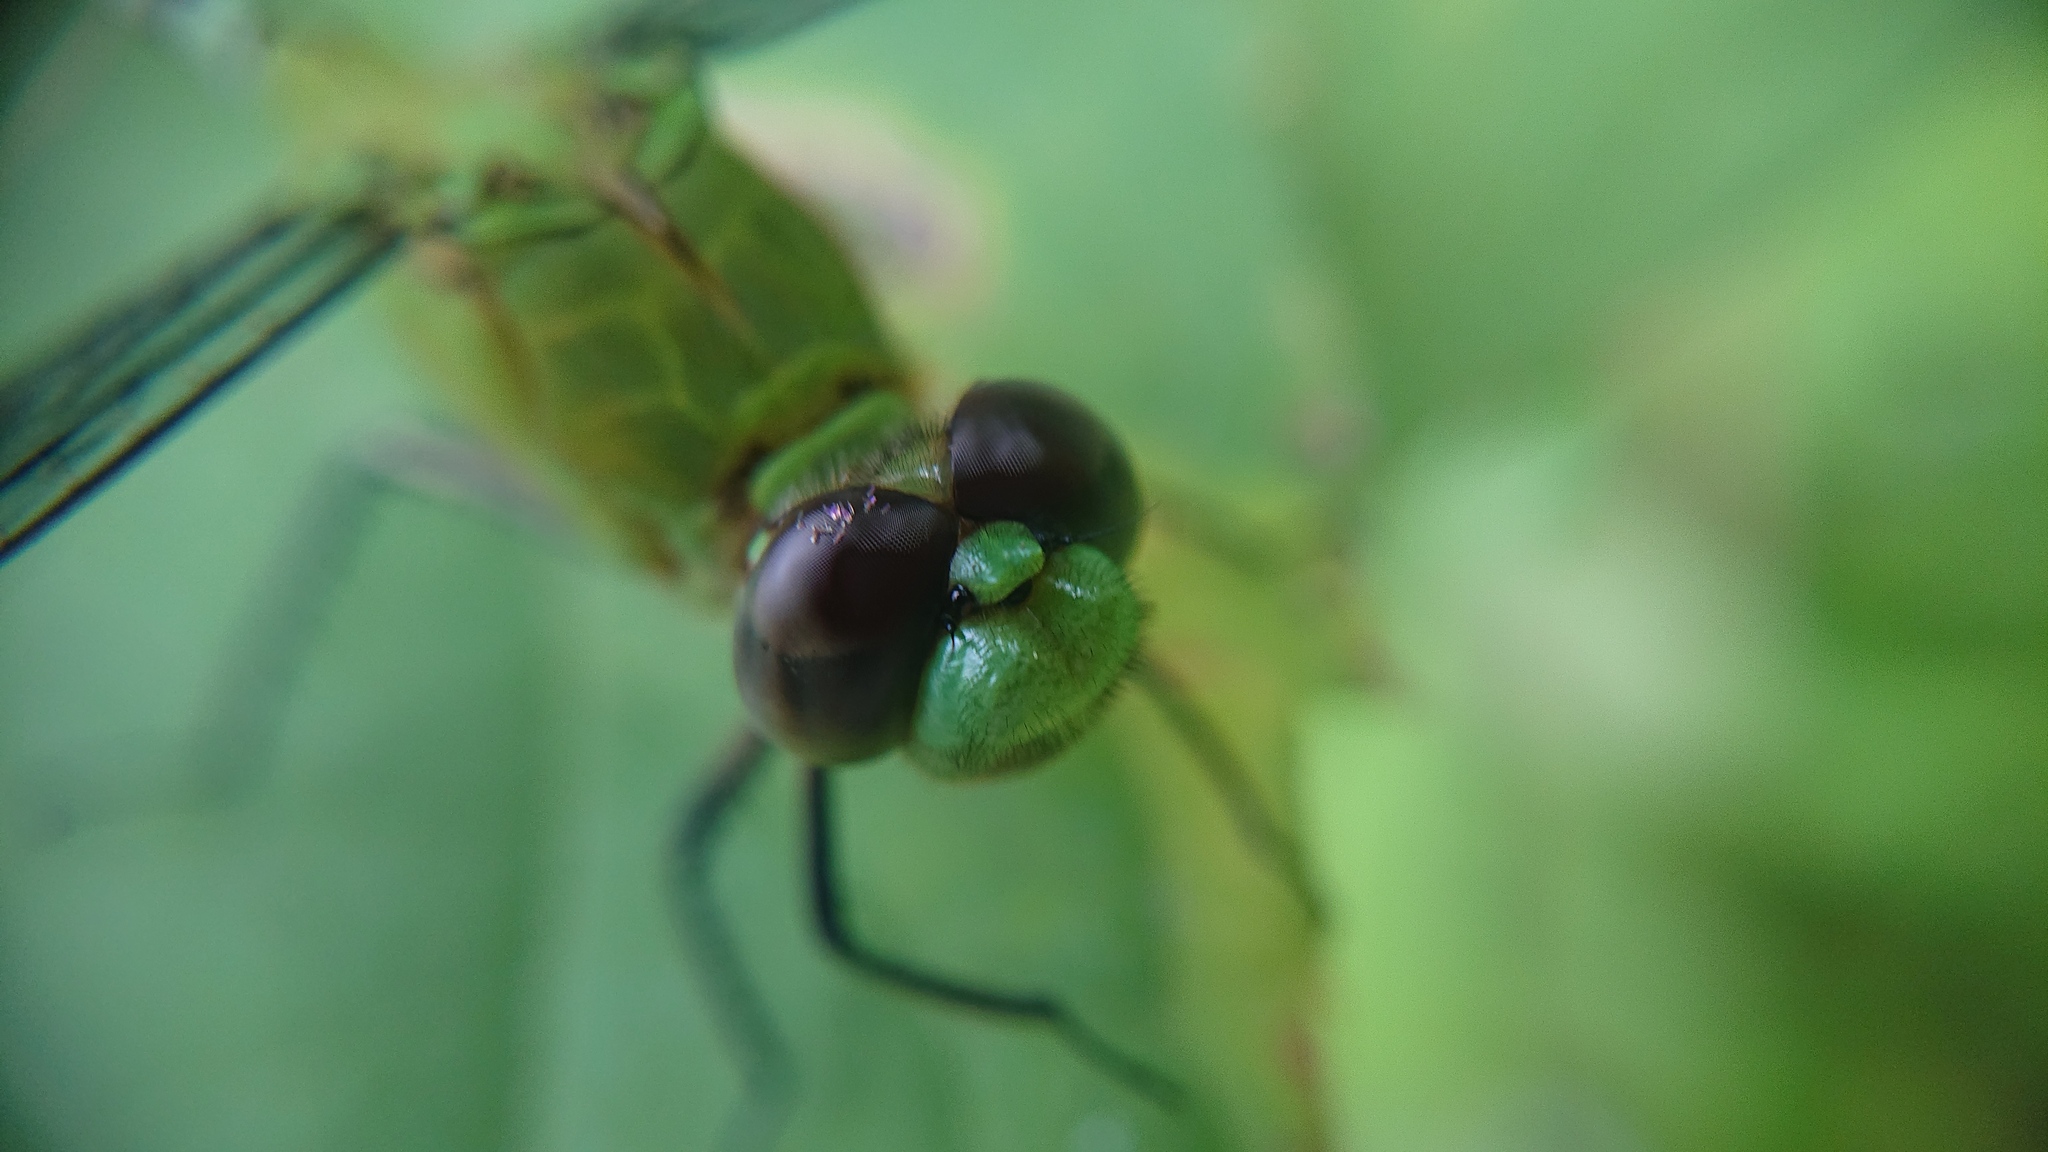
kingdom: Animalia
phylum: Arthropoda
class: Insecta
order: Odonata
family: Libellulidae
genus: Erythemis
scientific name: Erythemis vesiculosa
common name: Great pondhawk
